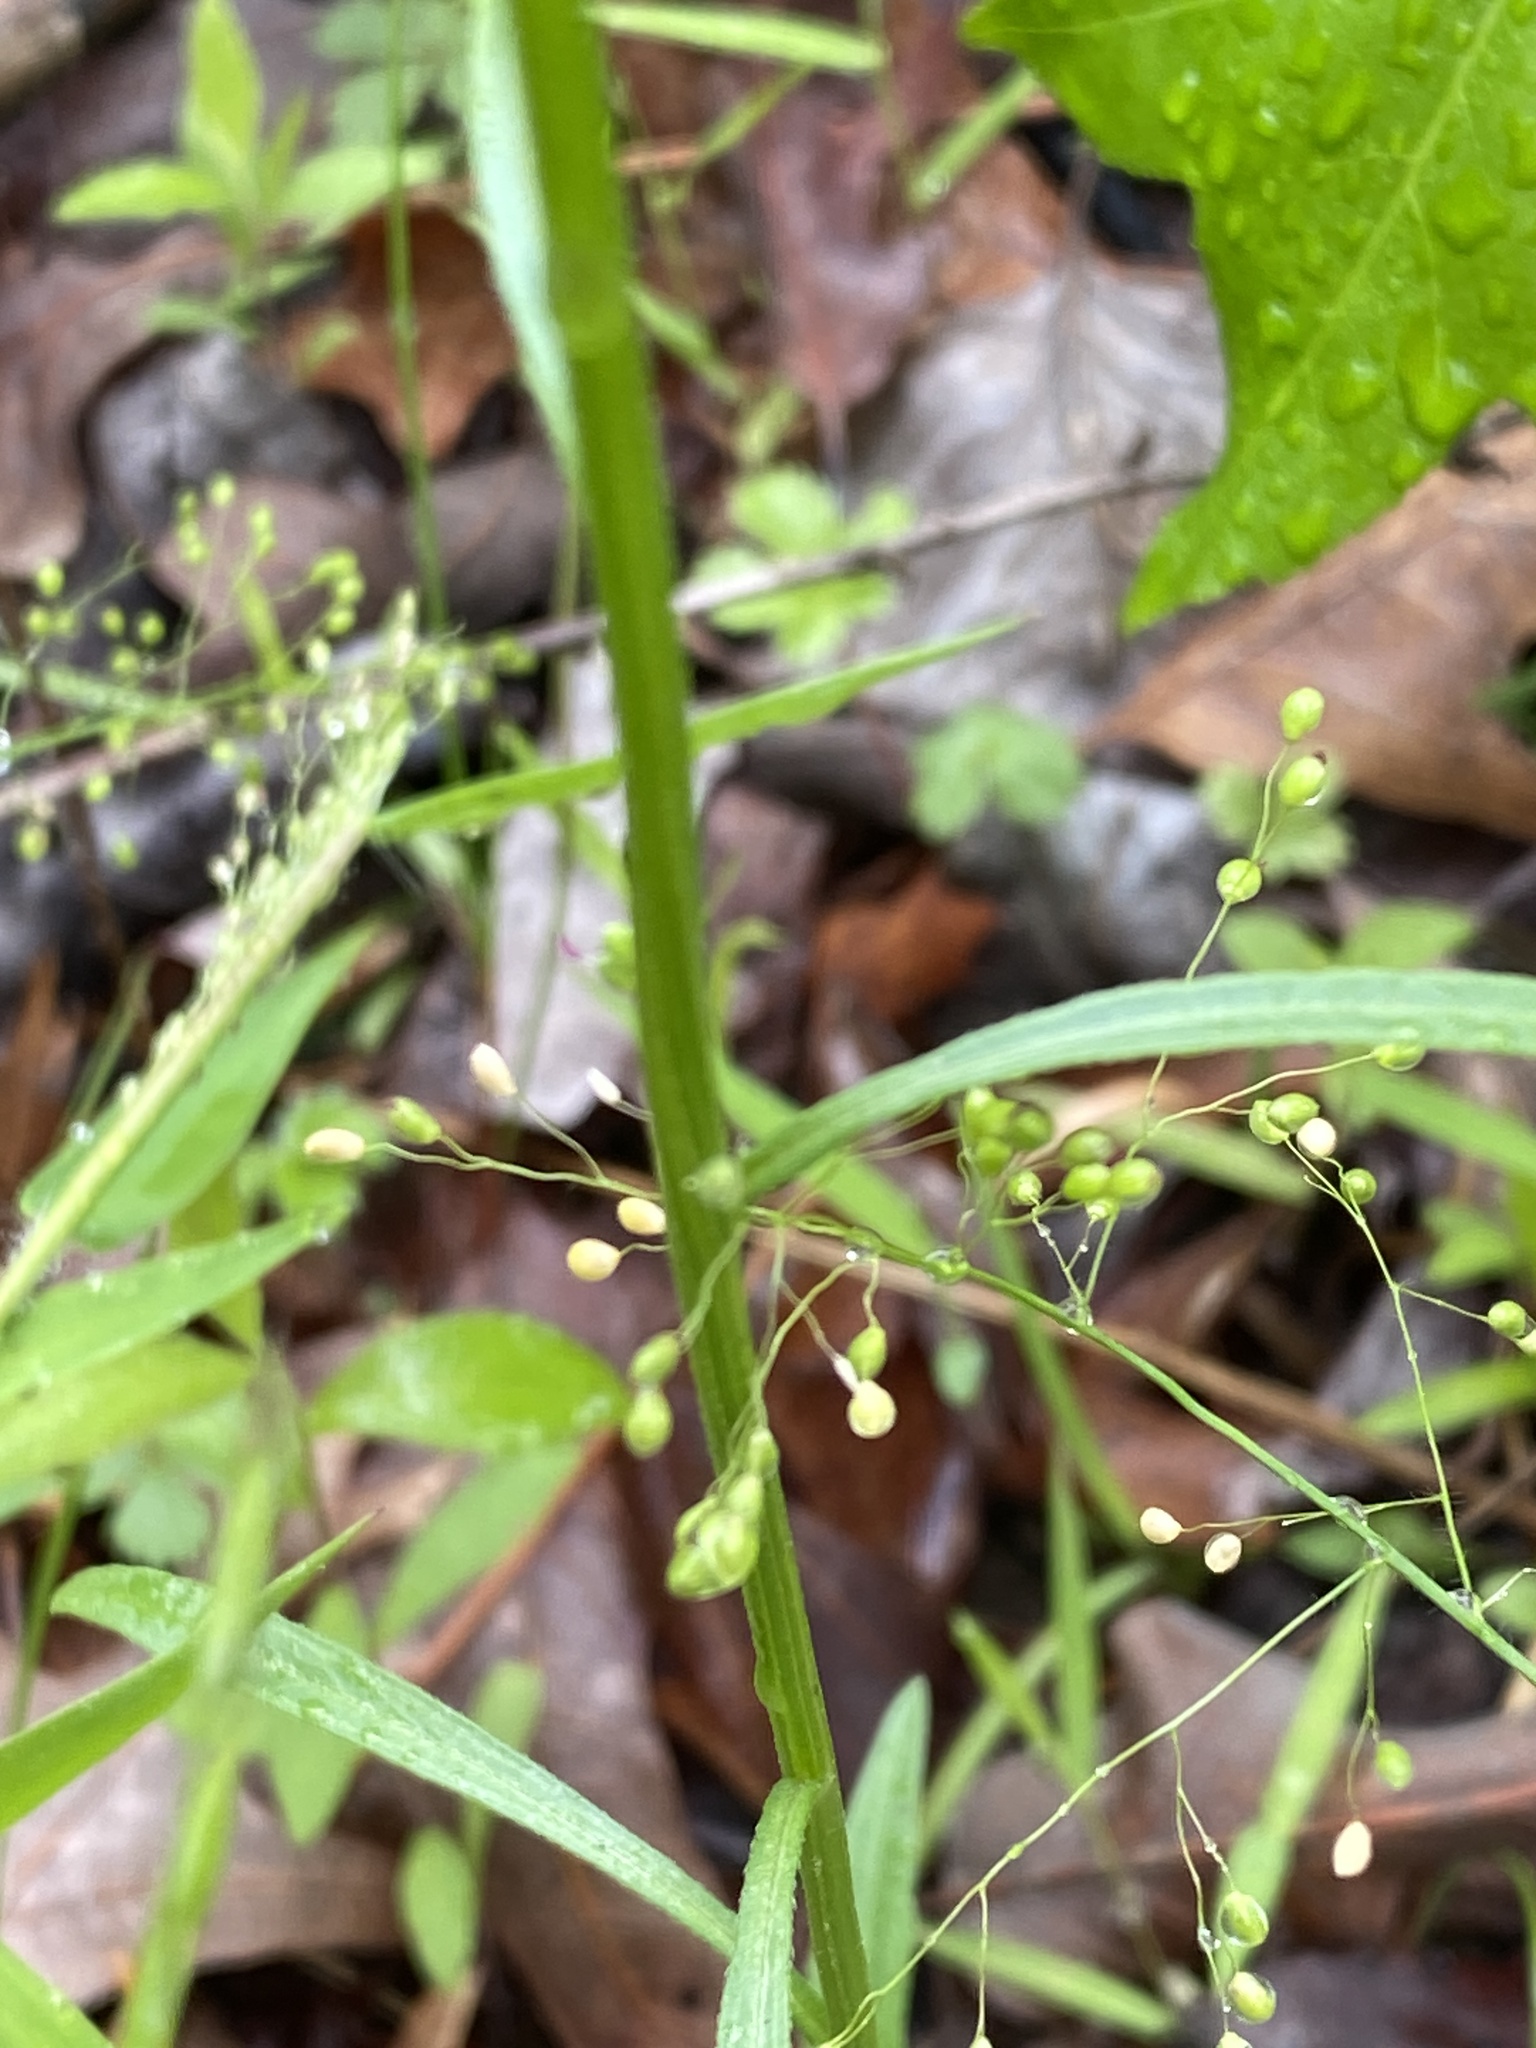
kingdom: Plantae
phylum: Tracheophyta
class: Magnoliopsida
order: Asterales
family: Asteraceae
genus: Erigeron
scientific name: Erigeron strigosus
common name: Common eastern fleabane
